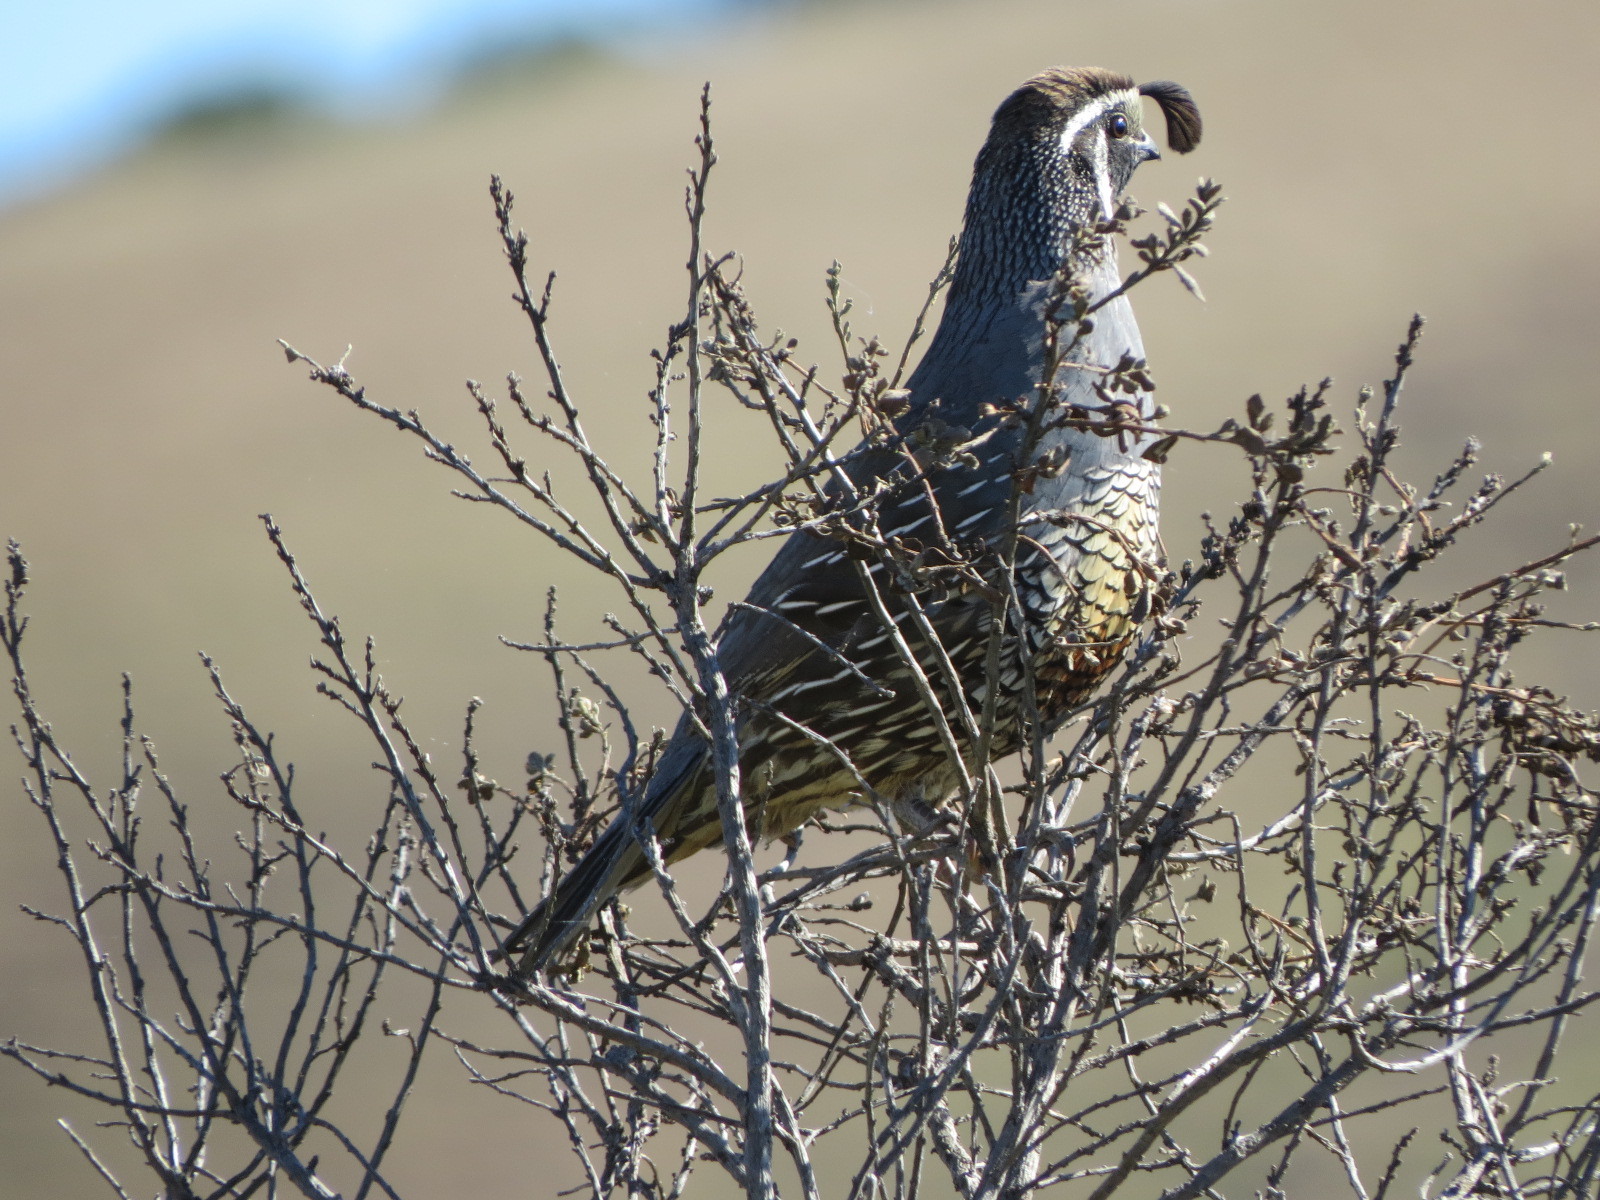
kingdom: Animalia
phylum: Chordata
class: Aves
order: Galliformes
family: Odontophoridae
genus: Callipepla
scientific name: Callipepla californica
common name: California quail
